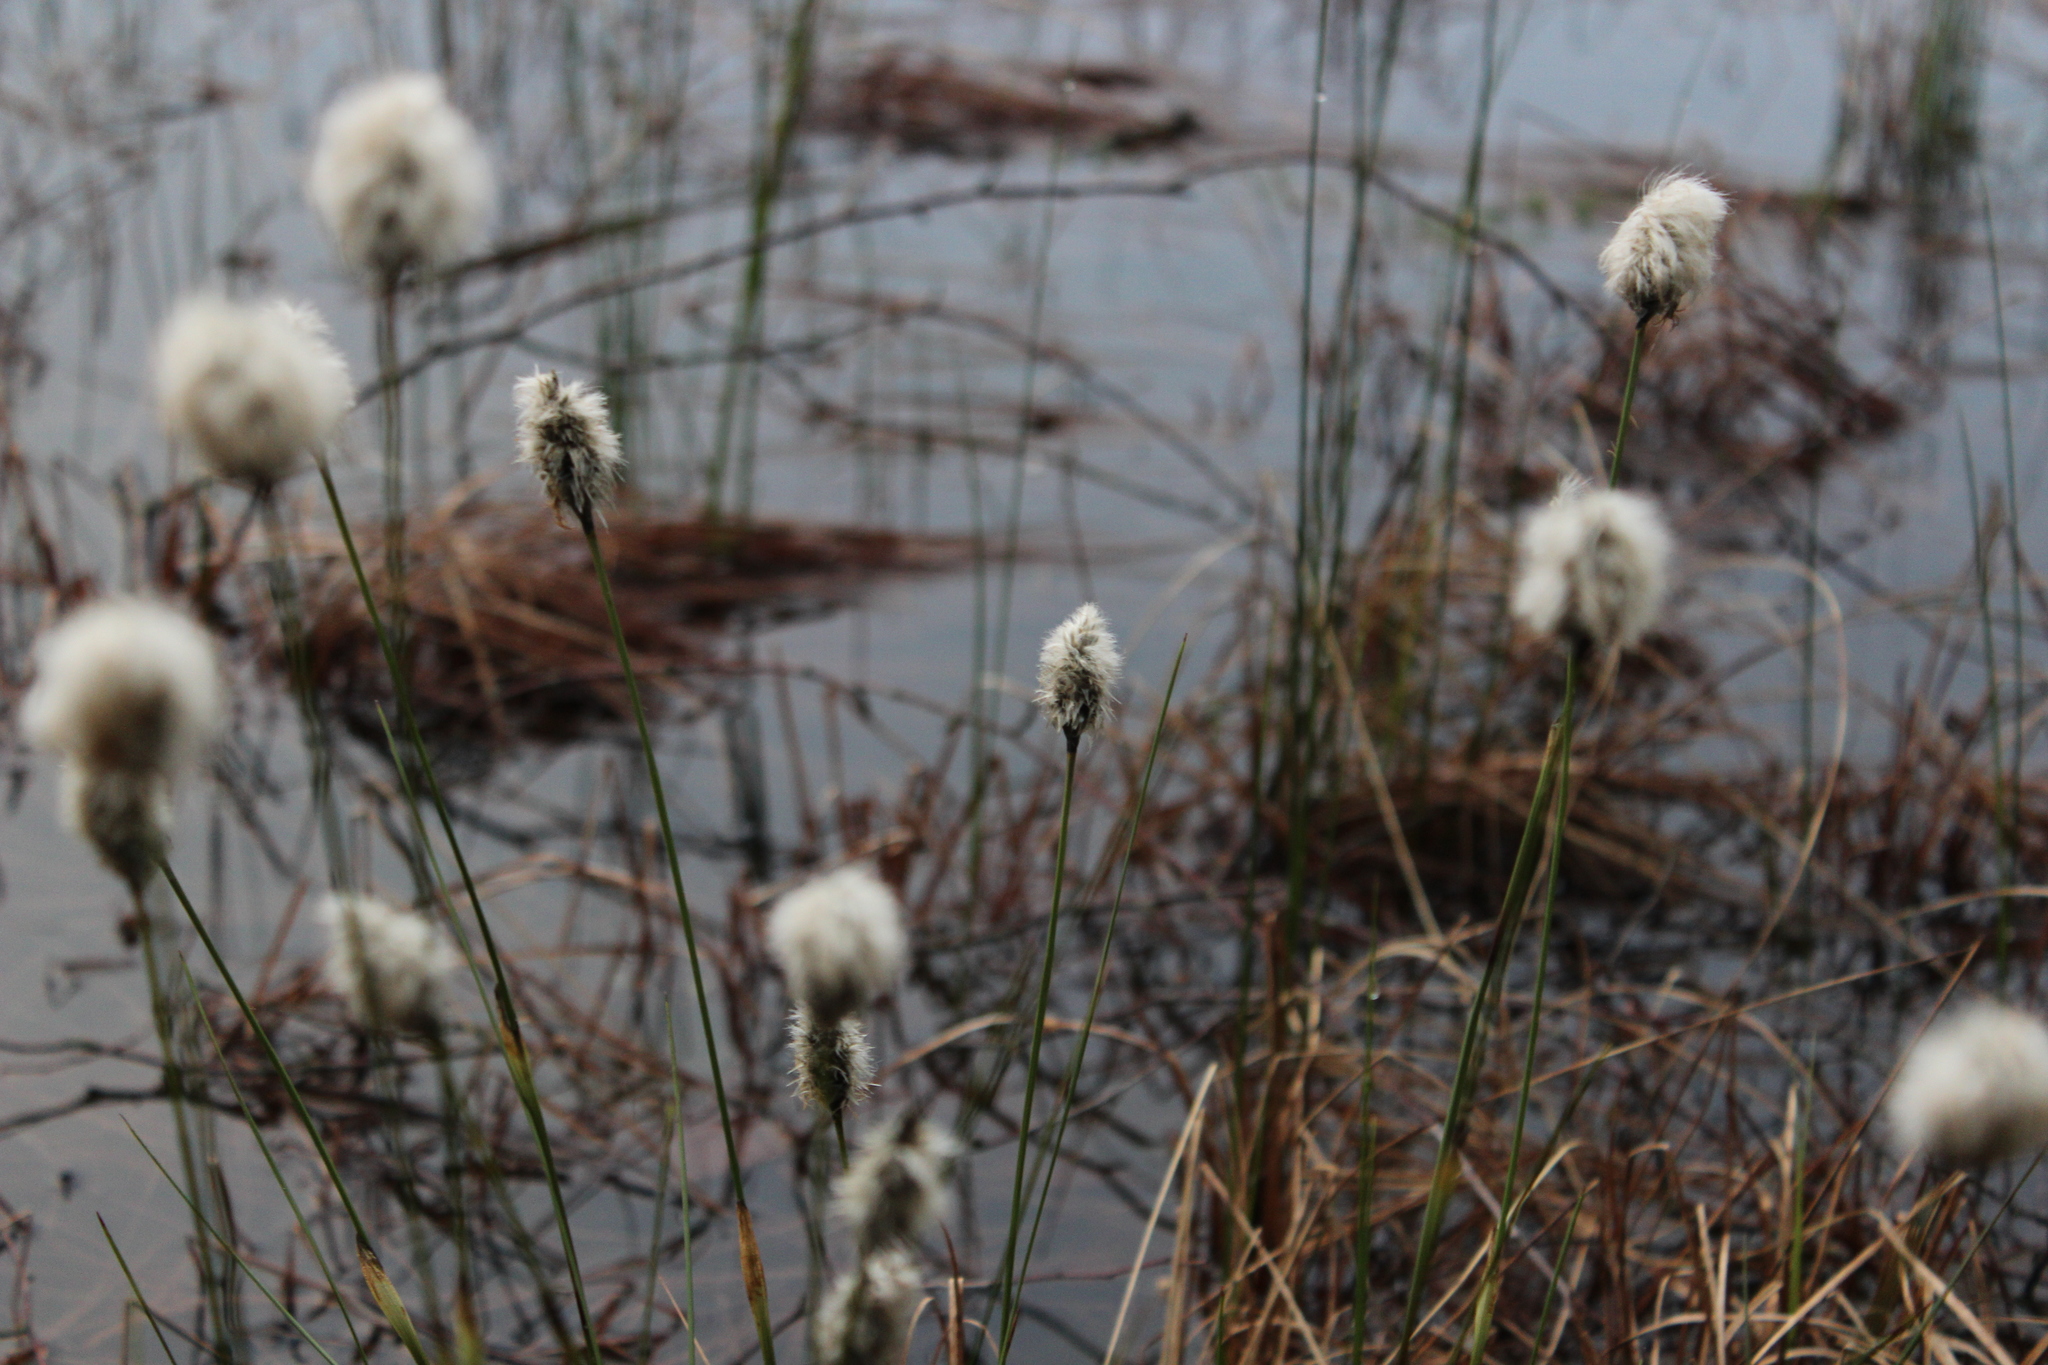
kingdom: Plantae
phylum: Tracheophyta
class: Liliopsida
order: Poales
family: Cyperaceae
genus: Eriophorum
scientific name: Eriophorum vaginatum
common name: Hare's-tail cottongrass
